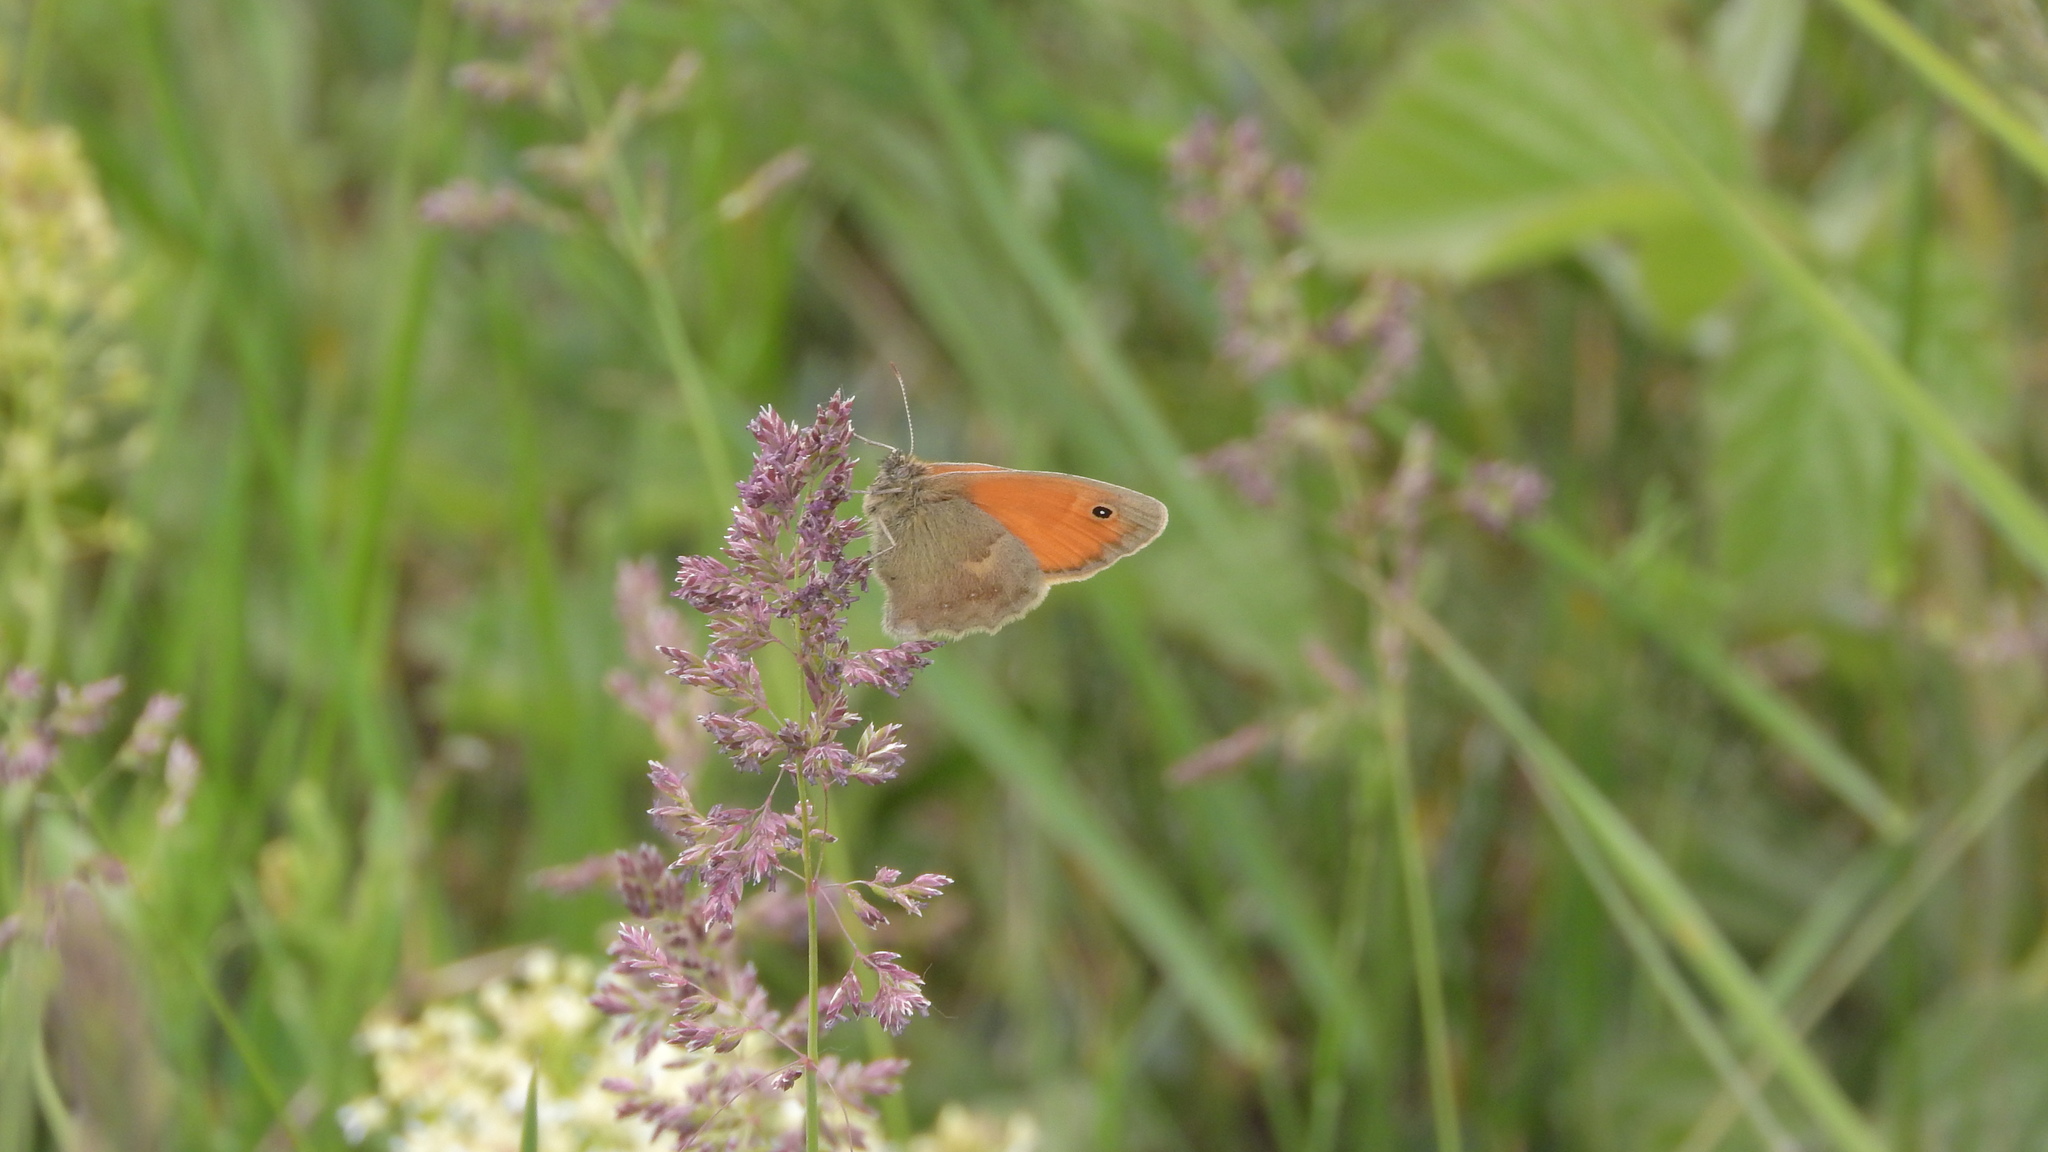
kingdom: Animalia
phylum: Arthropoda
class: Insecta
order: Lepidoptera
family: Nymphalidae
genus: Coenonympha
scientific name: Coenonympha pamphilus
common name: Small heath
